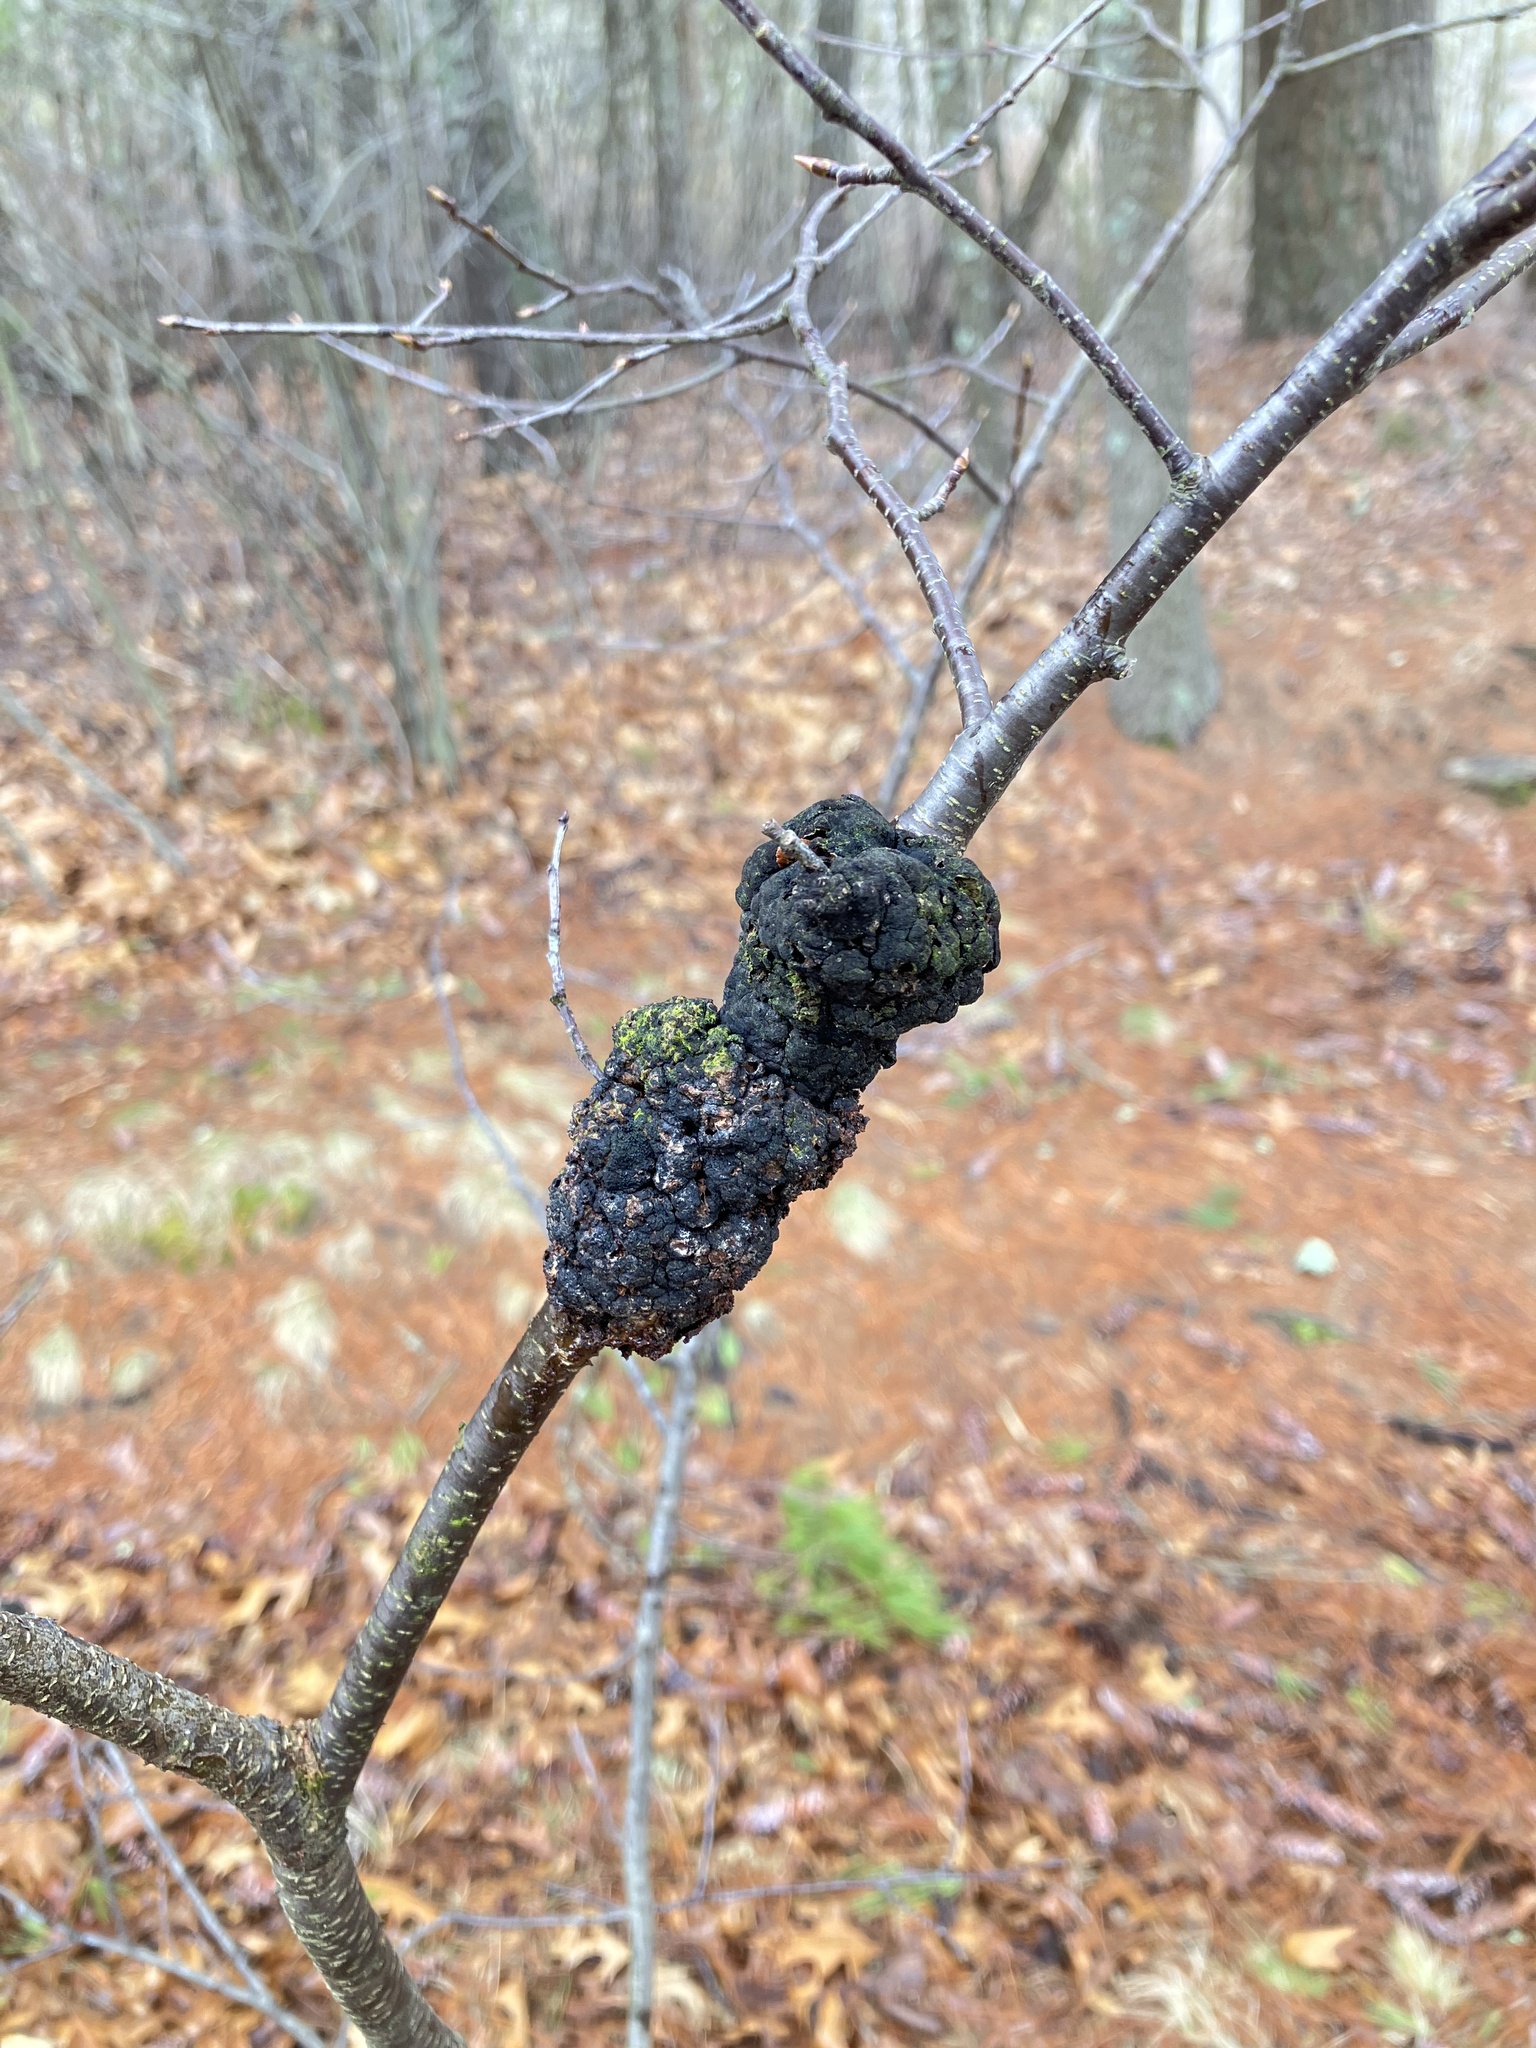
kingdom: Fungi
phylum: Ascomycota
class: Dothideomycetes
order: Venturiales
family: Venturiaceae
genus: Apiosporina
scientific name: Apiosporina morbosa
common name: Black knot
